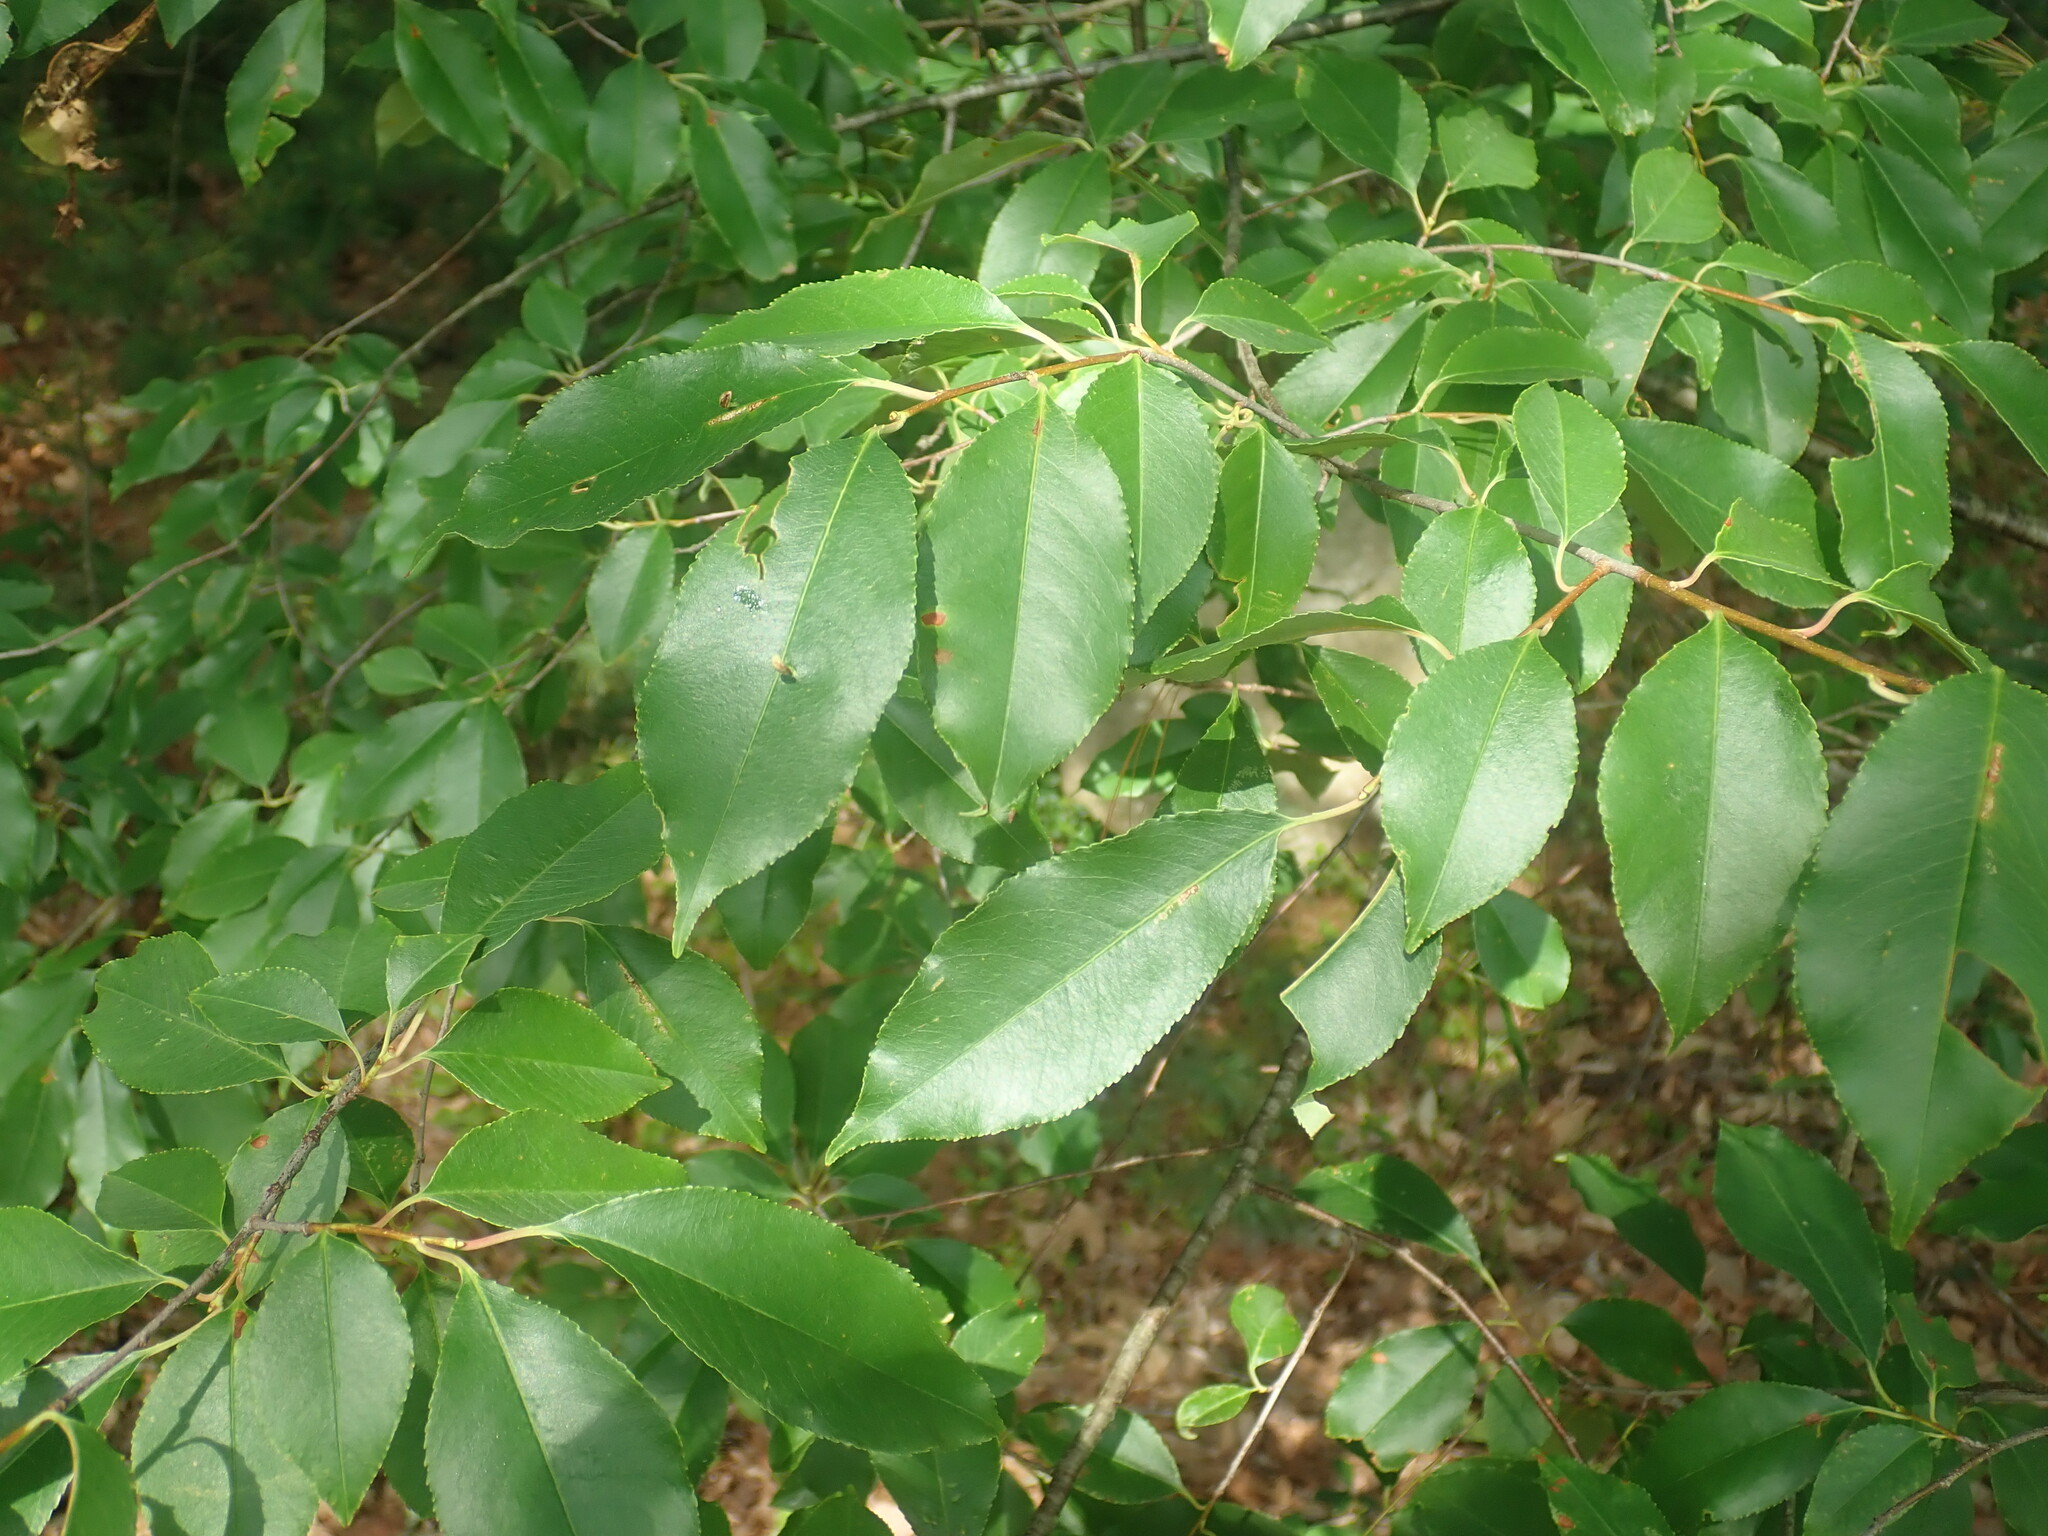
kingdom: Plantae
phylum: Tracheophyta
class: Magnoliopsida
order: Rosales
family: Rosaceae
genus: Prunus
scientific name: Prunus serotina
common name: Black cherry
